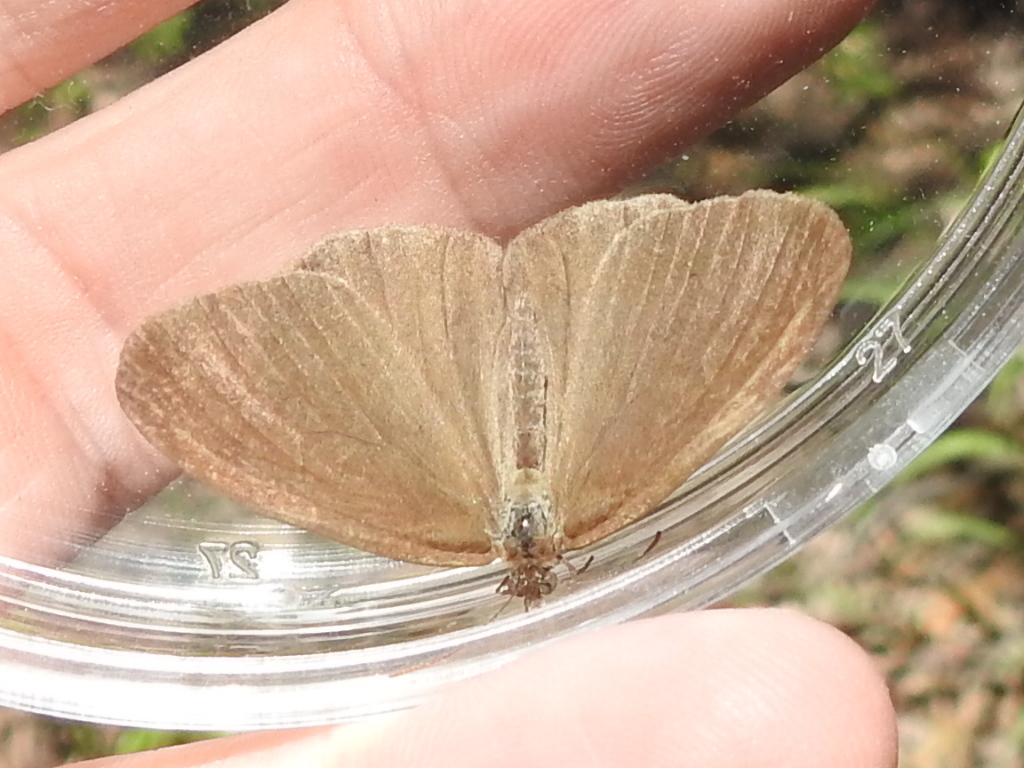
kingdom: Animalia
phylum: Arthropoda
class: Insecta
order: Lepidoptera
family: Nymphalidae
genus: Euptychia
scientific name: Euptychia cornelius
